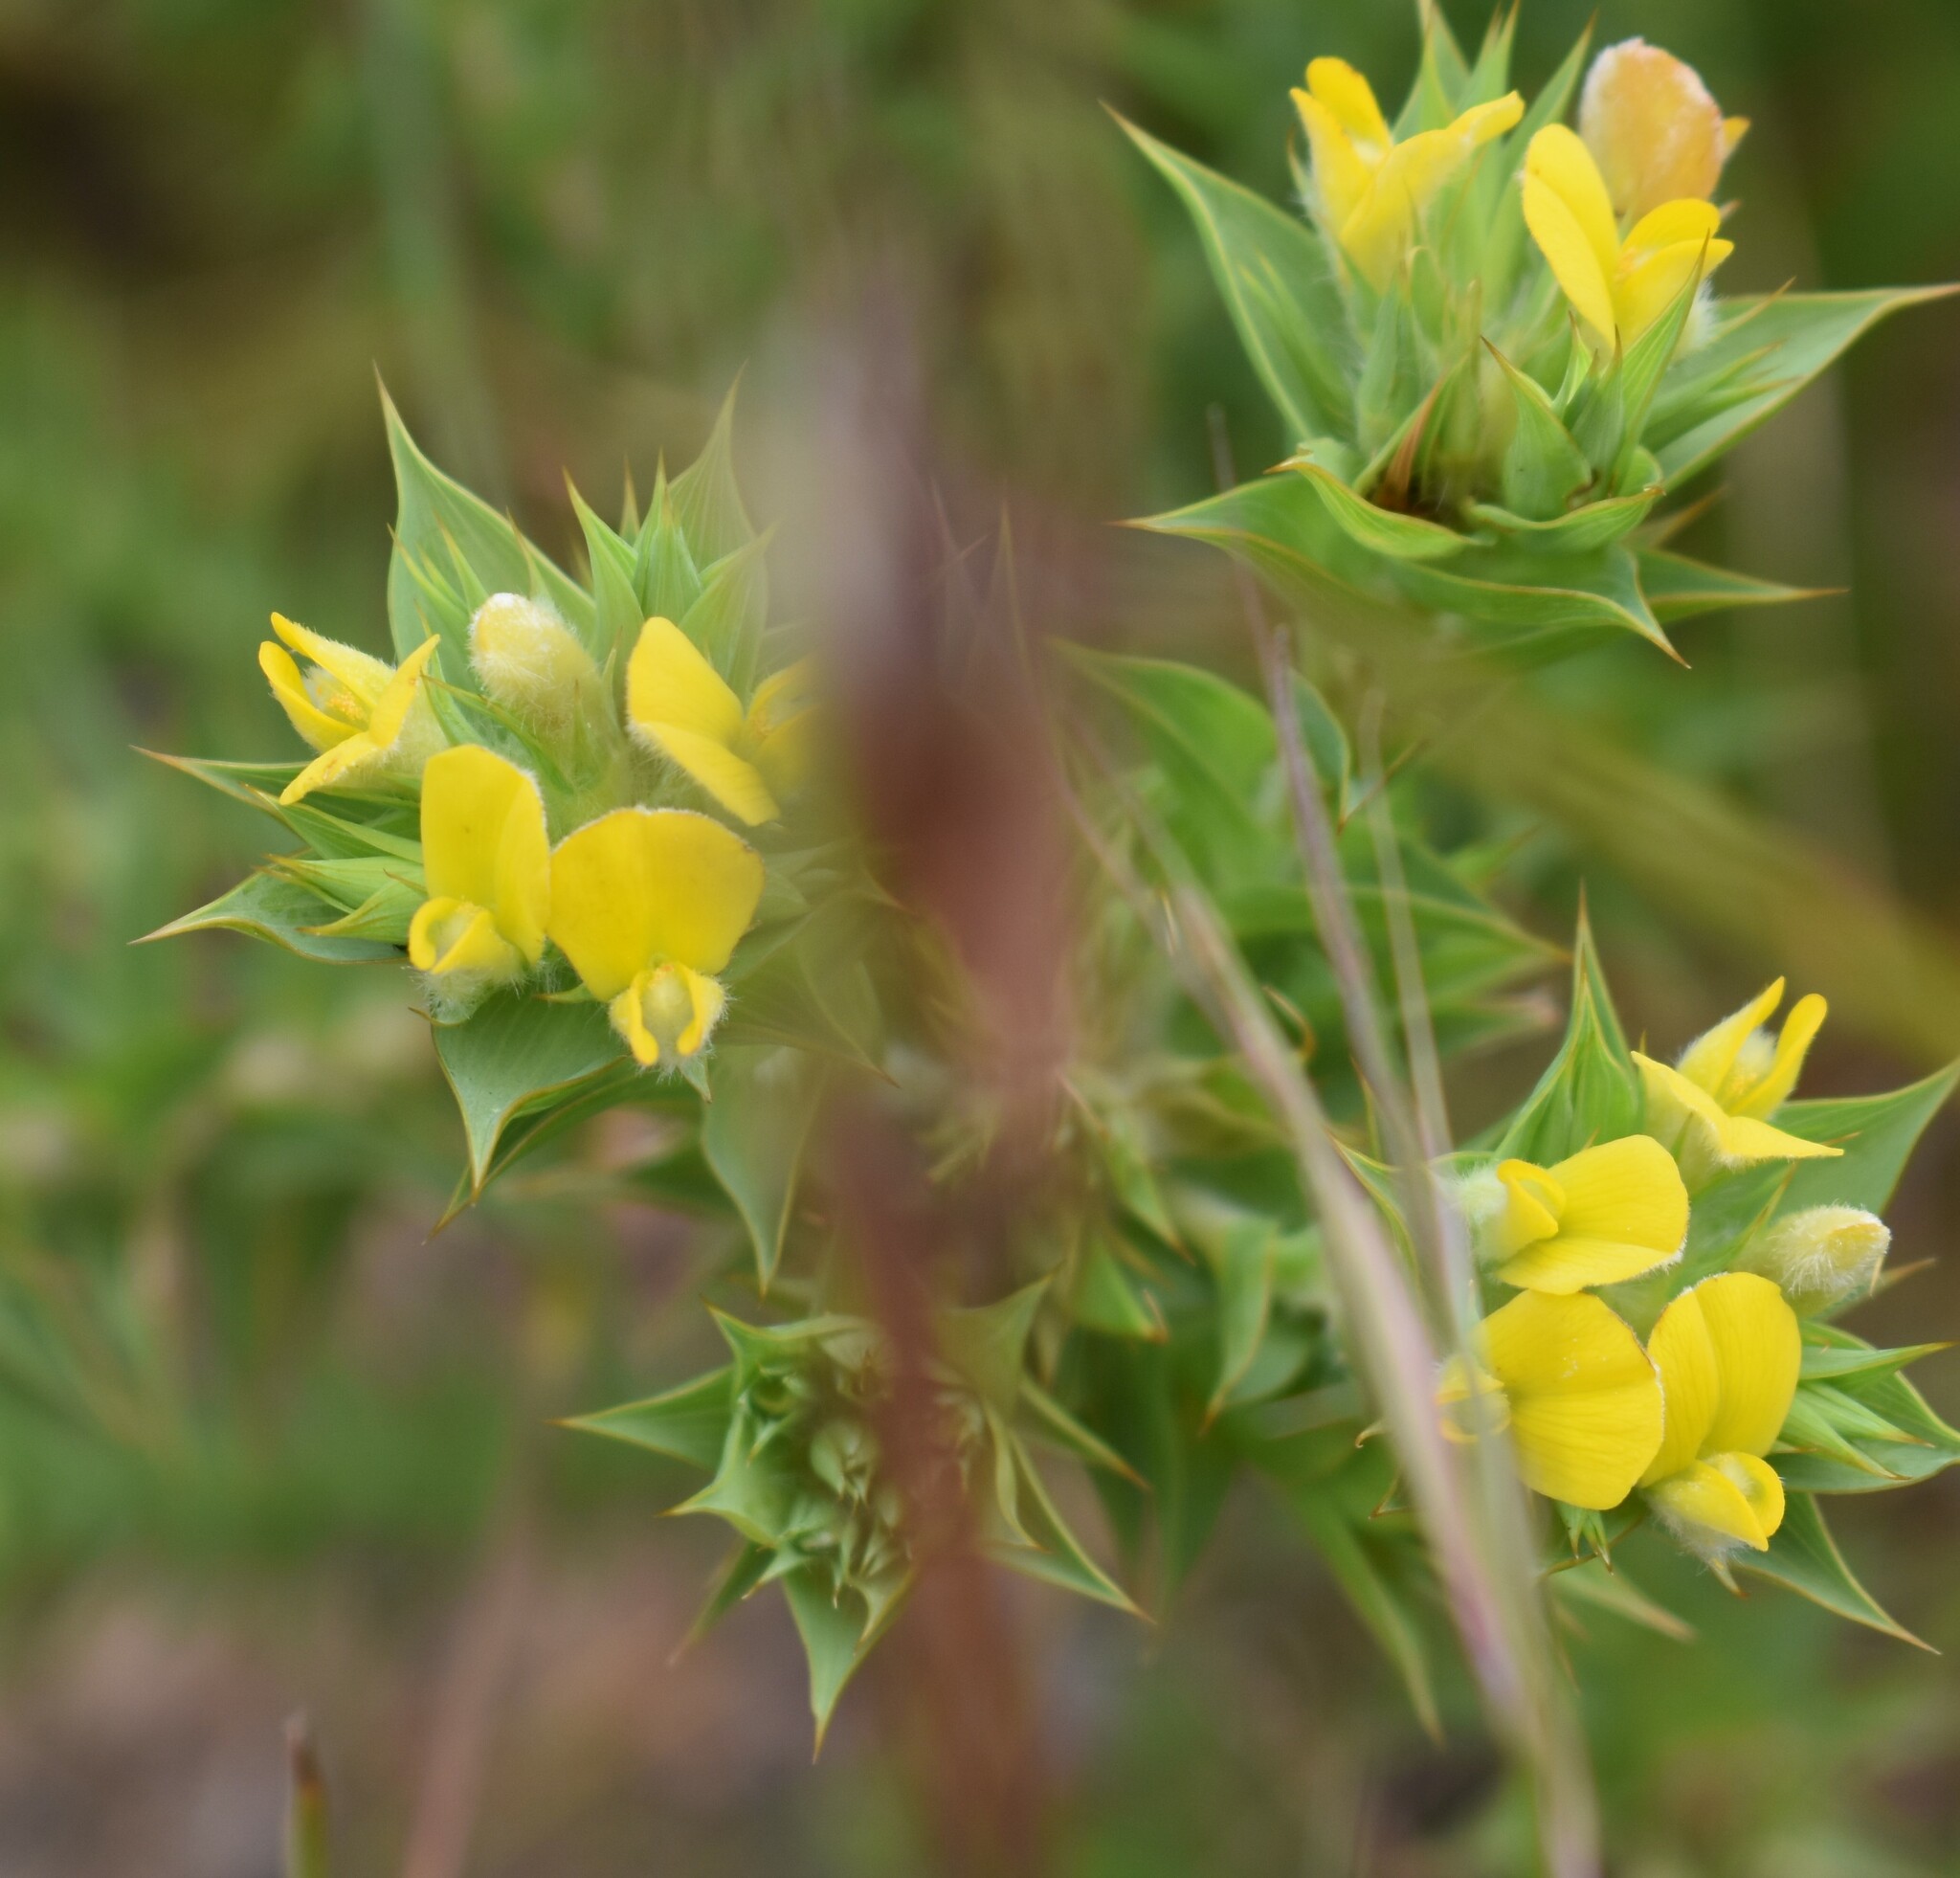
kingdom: Plantae
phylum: Tracheophyta
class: Magnoliopsida
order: Fabales
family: Fabaceae
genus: Aspalathus
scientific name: Aspalathus cordata
